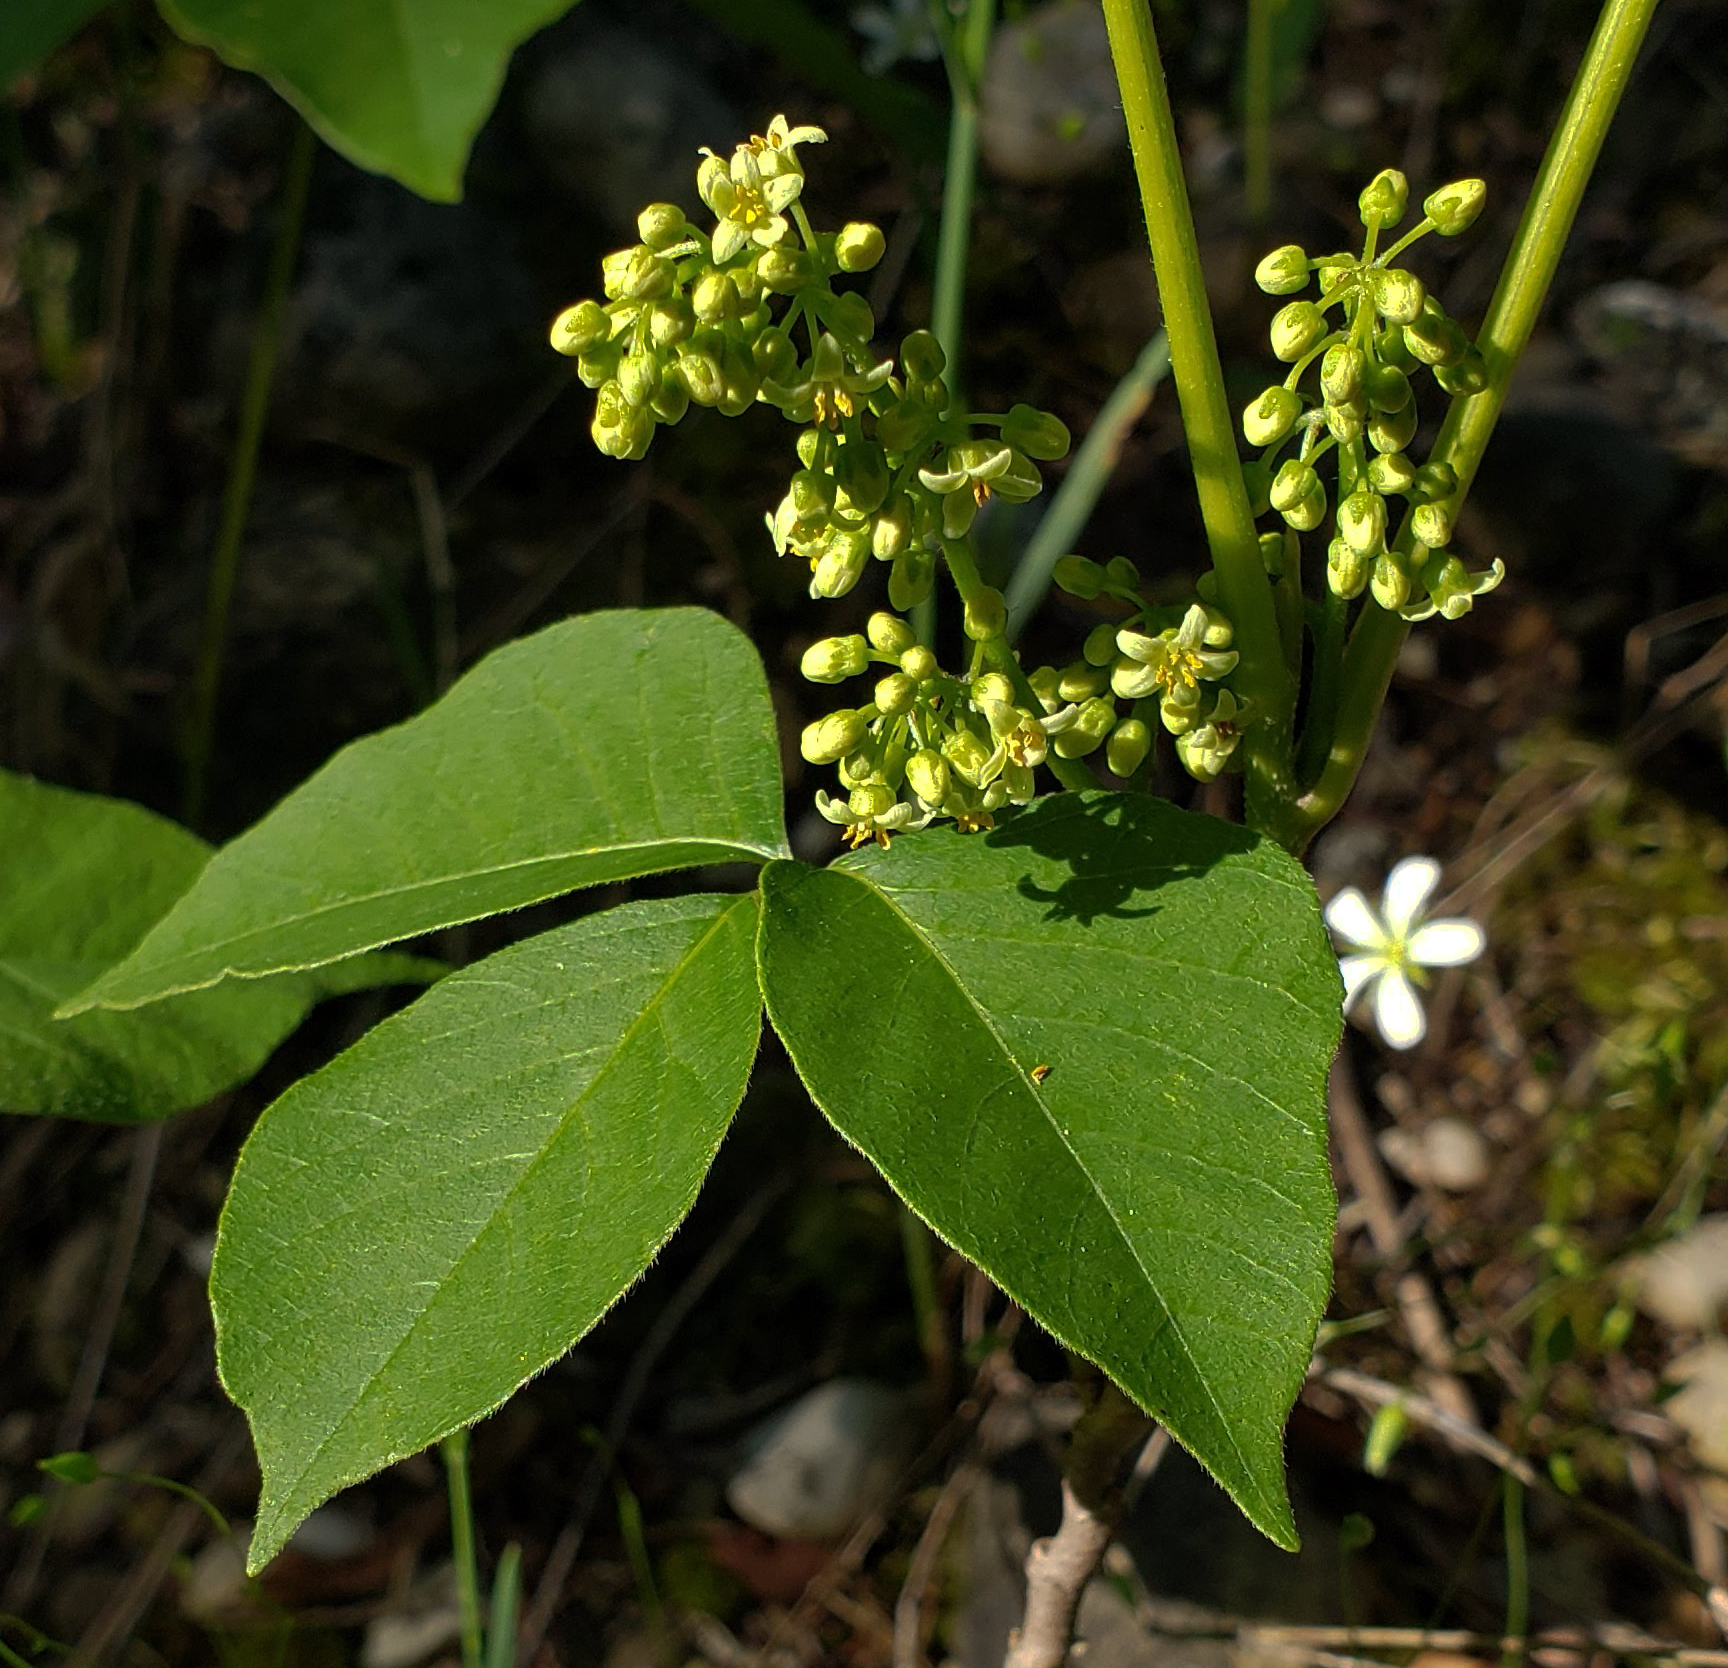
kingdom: Plantae
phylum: Tracheophyta
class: Magnoliopsida
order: Sapindales
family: Anacardiaceae
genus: Toxicodendron
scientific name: Toxicodendron rydbergii
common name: Rydberg's poison-ivy
